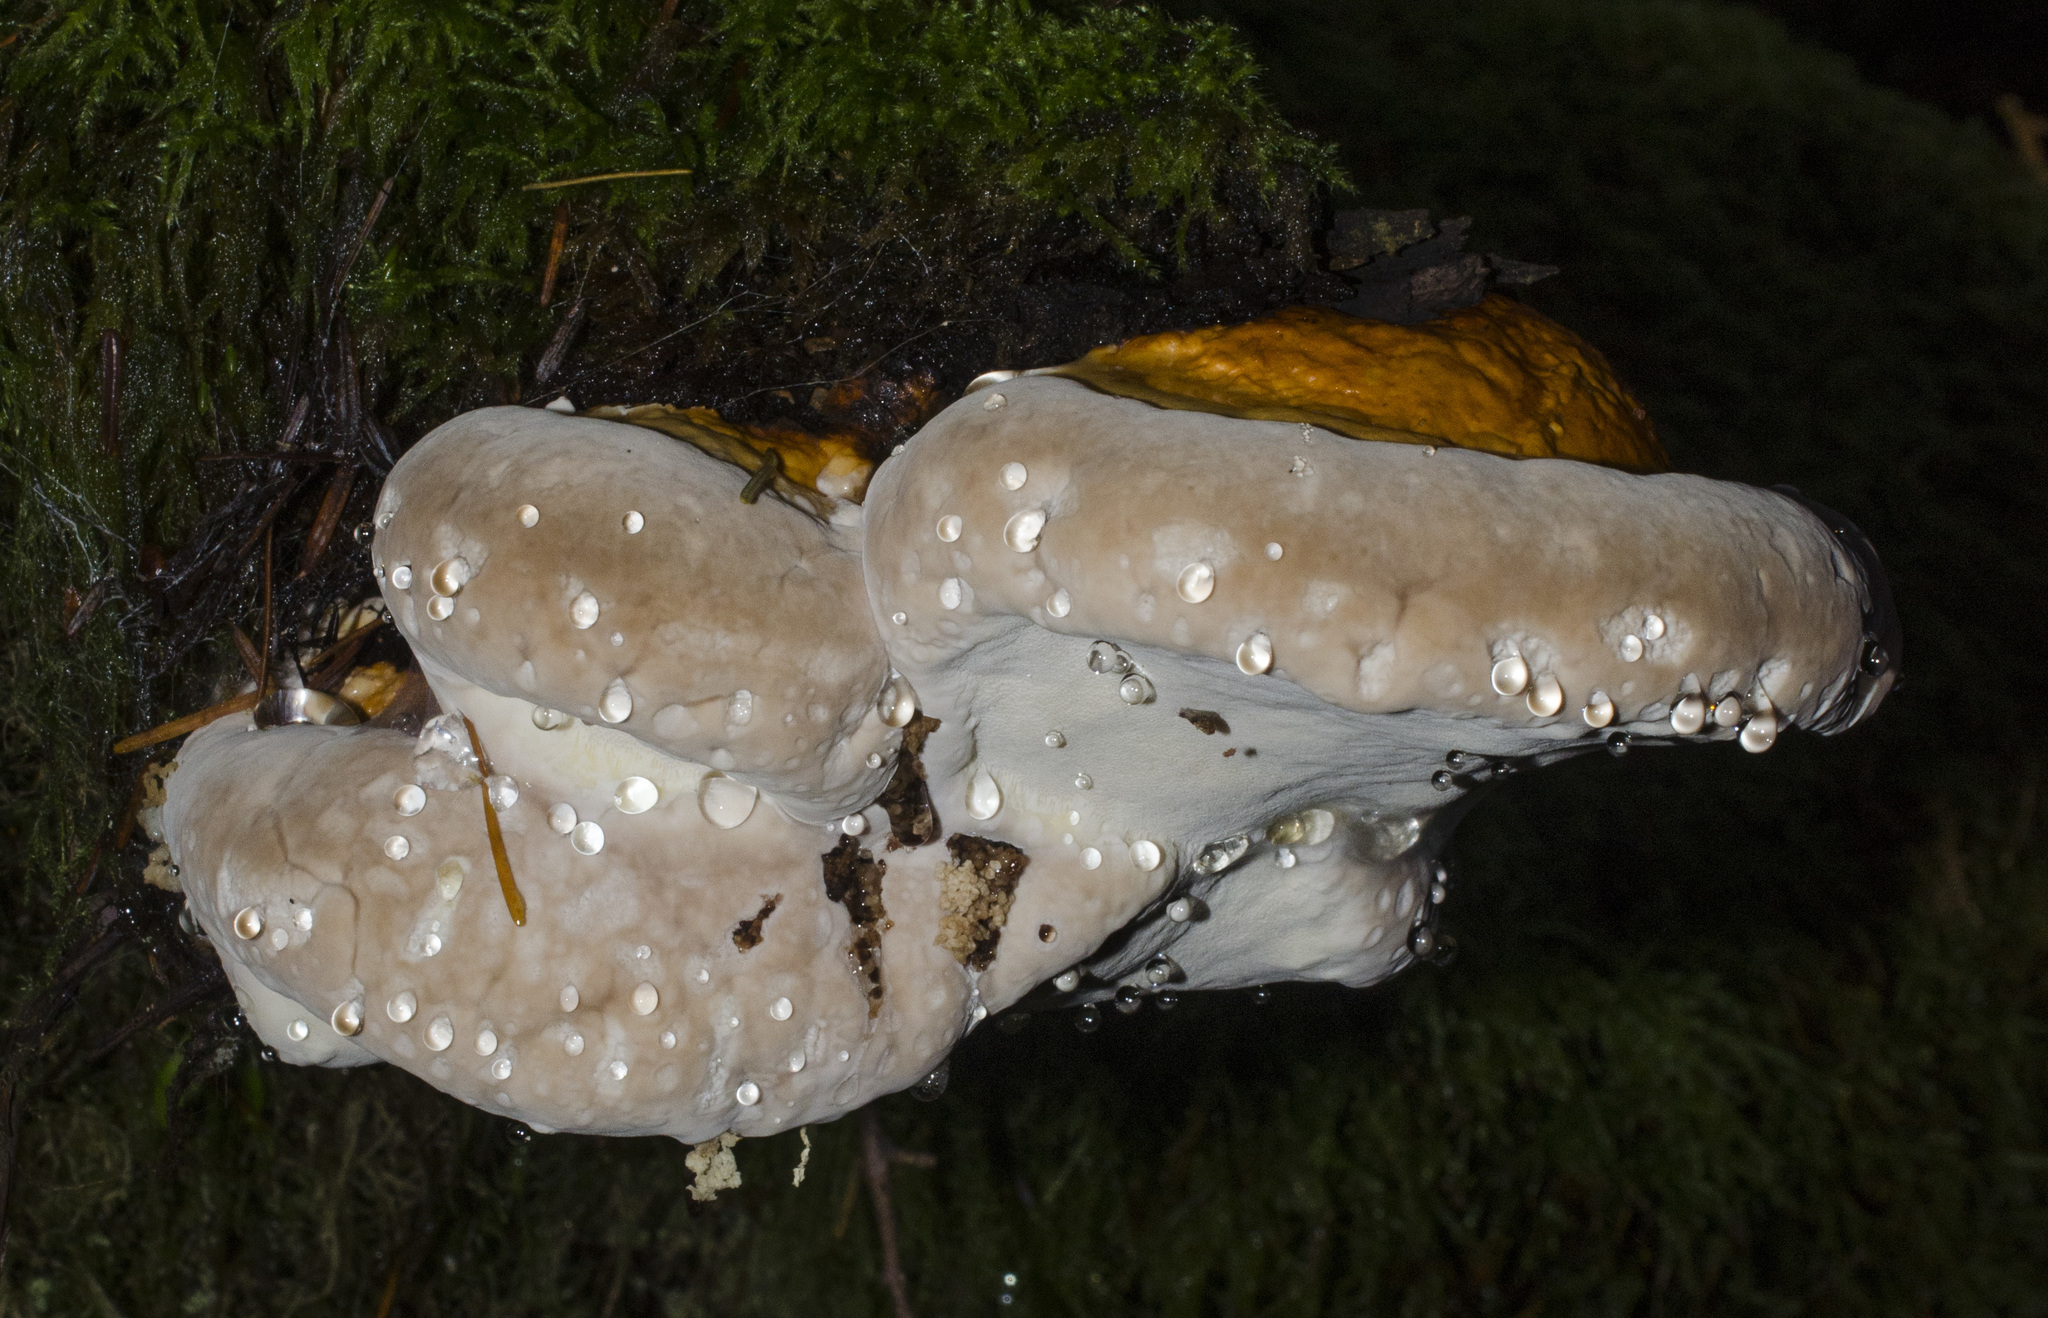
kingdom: Fungi
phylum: Basidiomycota
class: Agaricomycetes
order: Polyporales
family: Fomitopsidaceae
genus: Fomitopsis
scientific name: Fomitopsis mounceae
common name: Northern red belt
